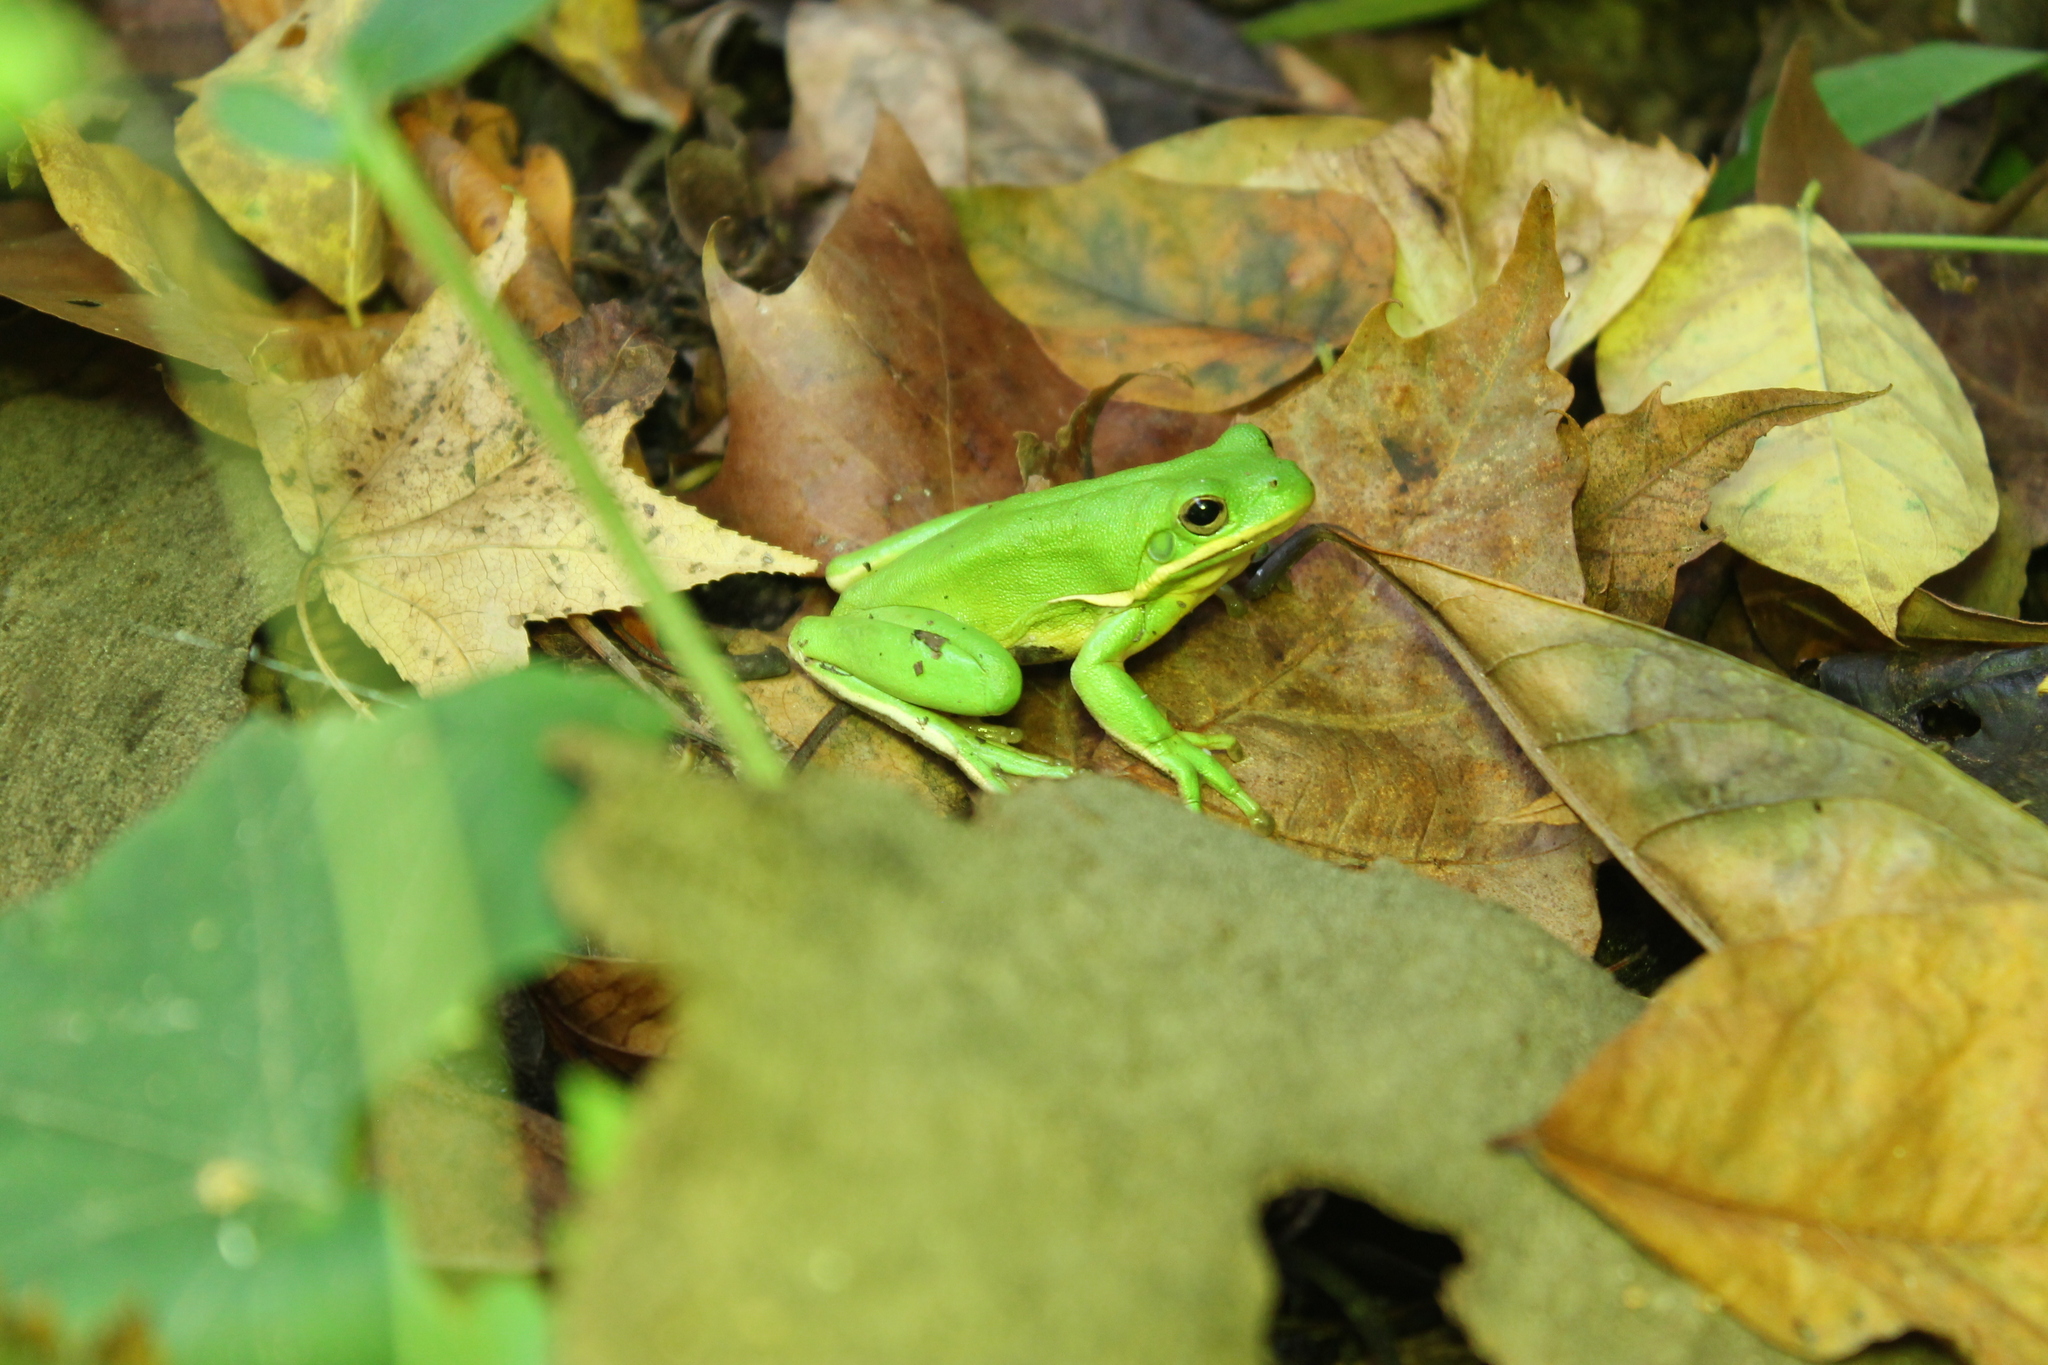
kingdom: Animalia
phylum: Chordata
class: Amphibia
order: Anura
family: Hylidae
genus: Dryophytes
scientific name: Dryophytes cinereus
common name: Green treefrog
